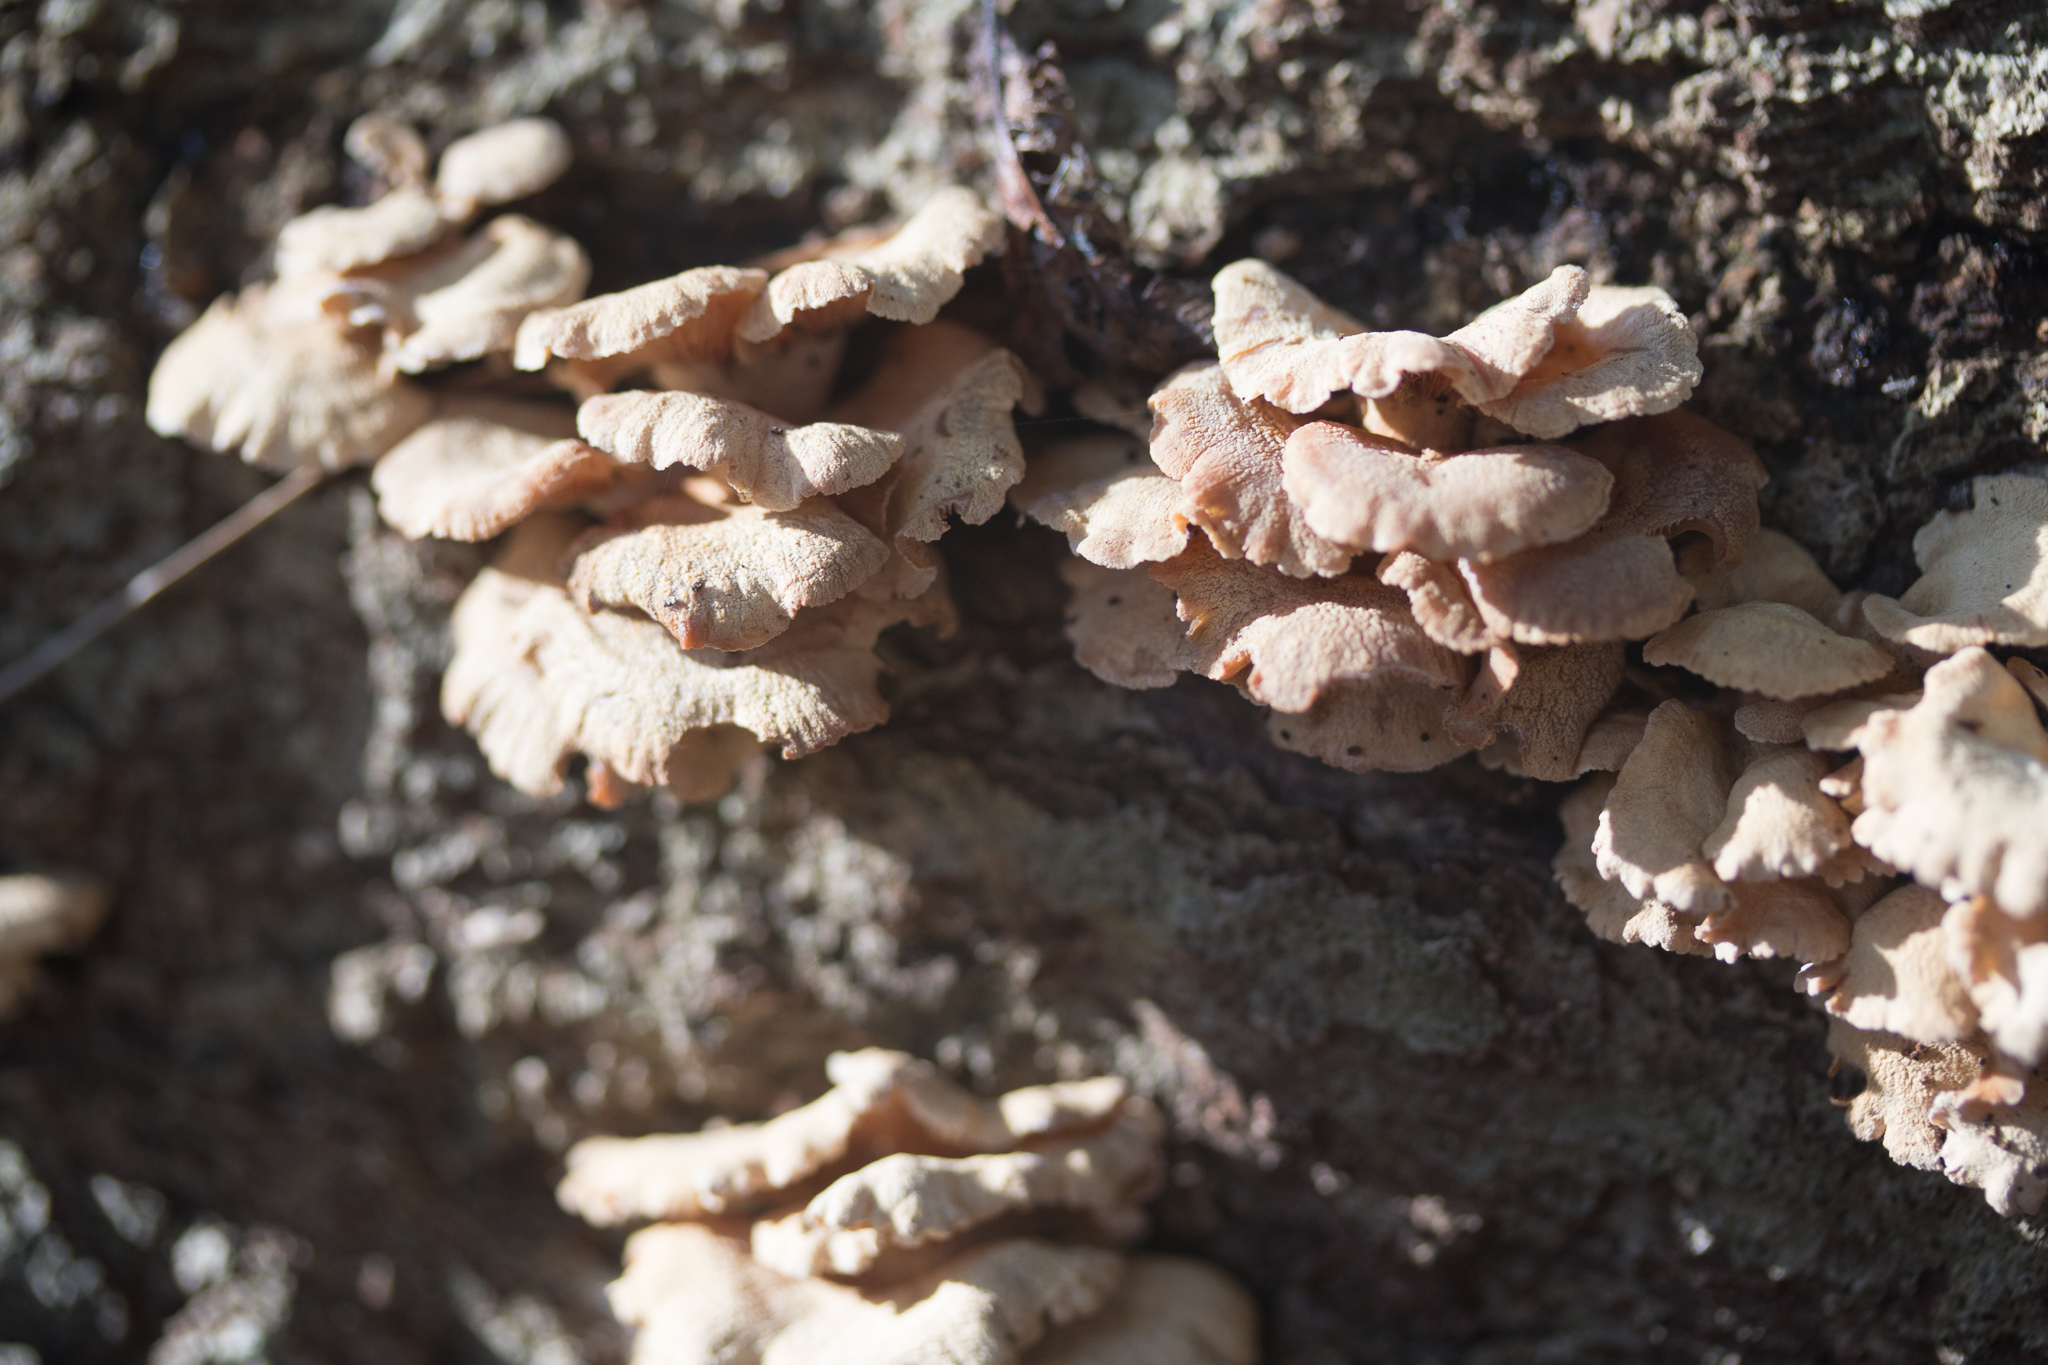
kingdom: Fungi
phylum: Basidiomycota
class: Agaricomycetes
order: Agaricales
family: Mycenaceae
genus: Panellus
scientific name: Panellus stipticus
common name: Bitter oysterling
